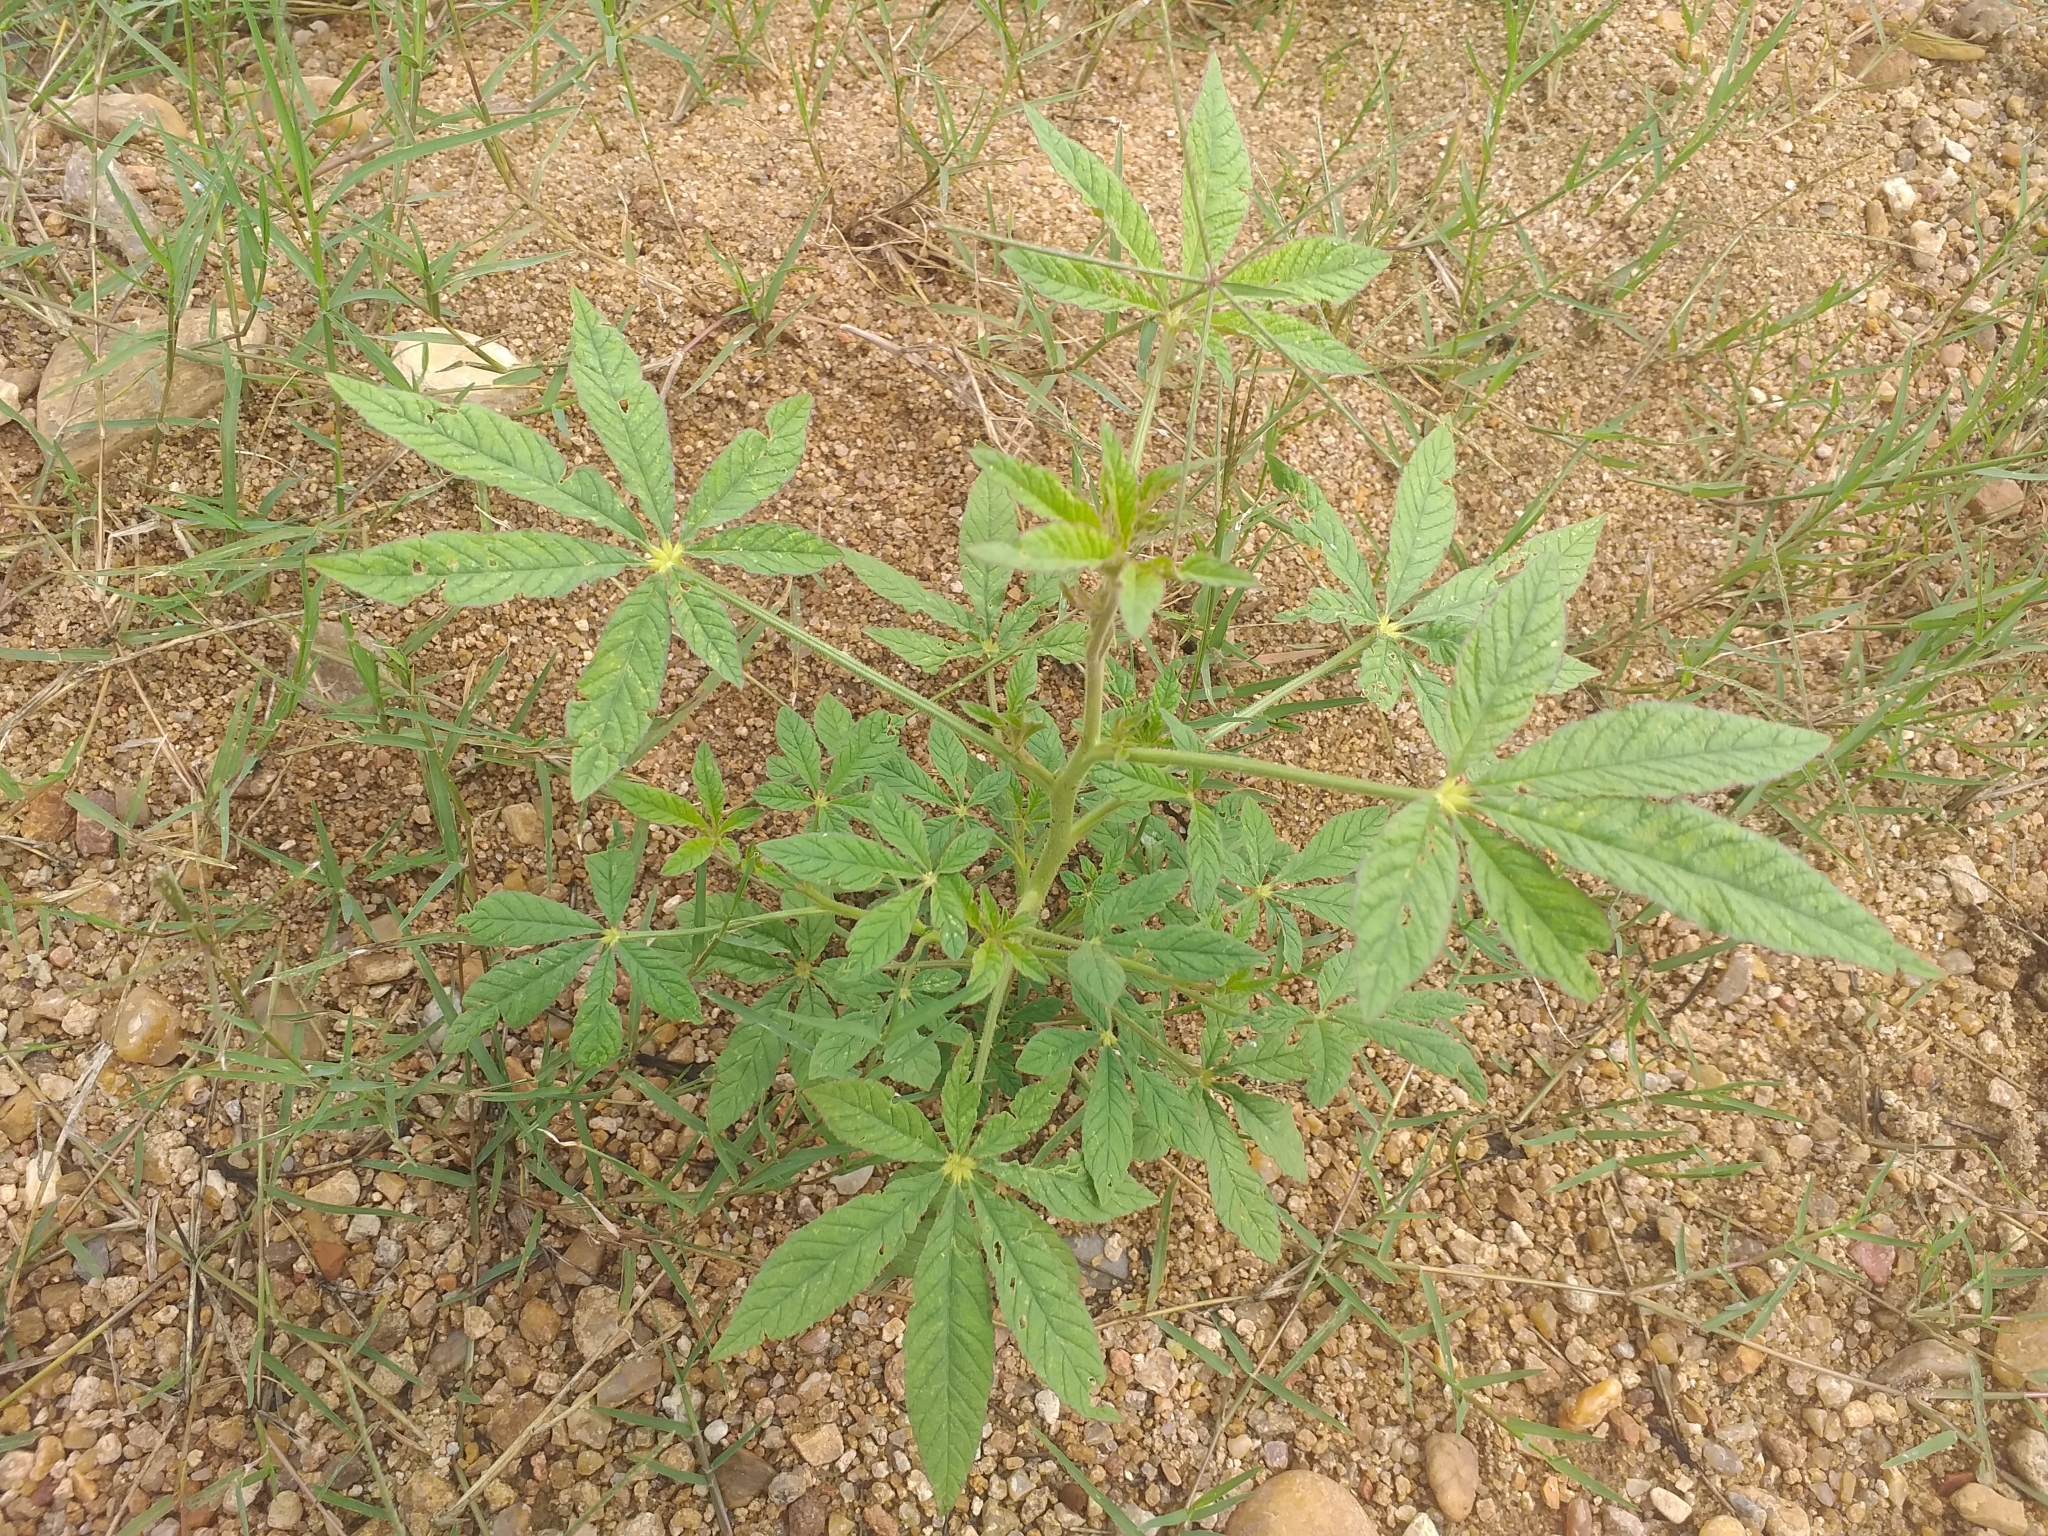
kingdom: Plantae
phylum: Tracheophyta
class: Magnoliopsida
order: Brassicales
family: Cleomaceae
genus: Tarenaya
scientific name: Tarenaya longicarpa
